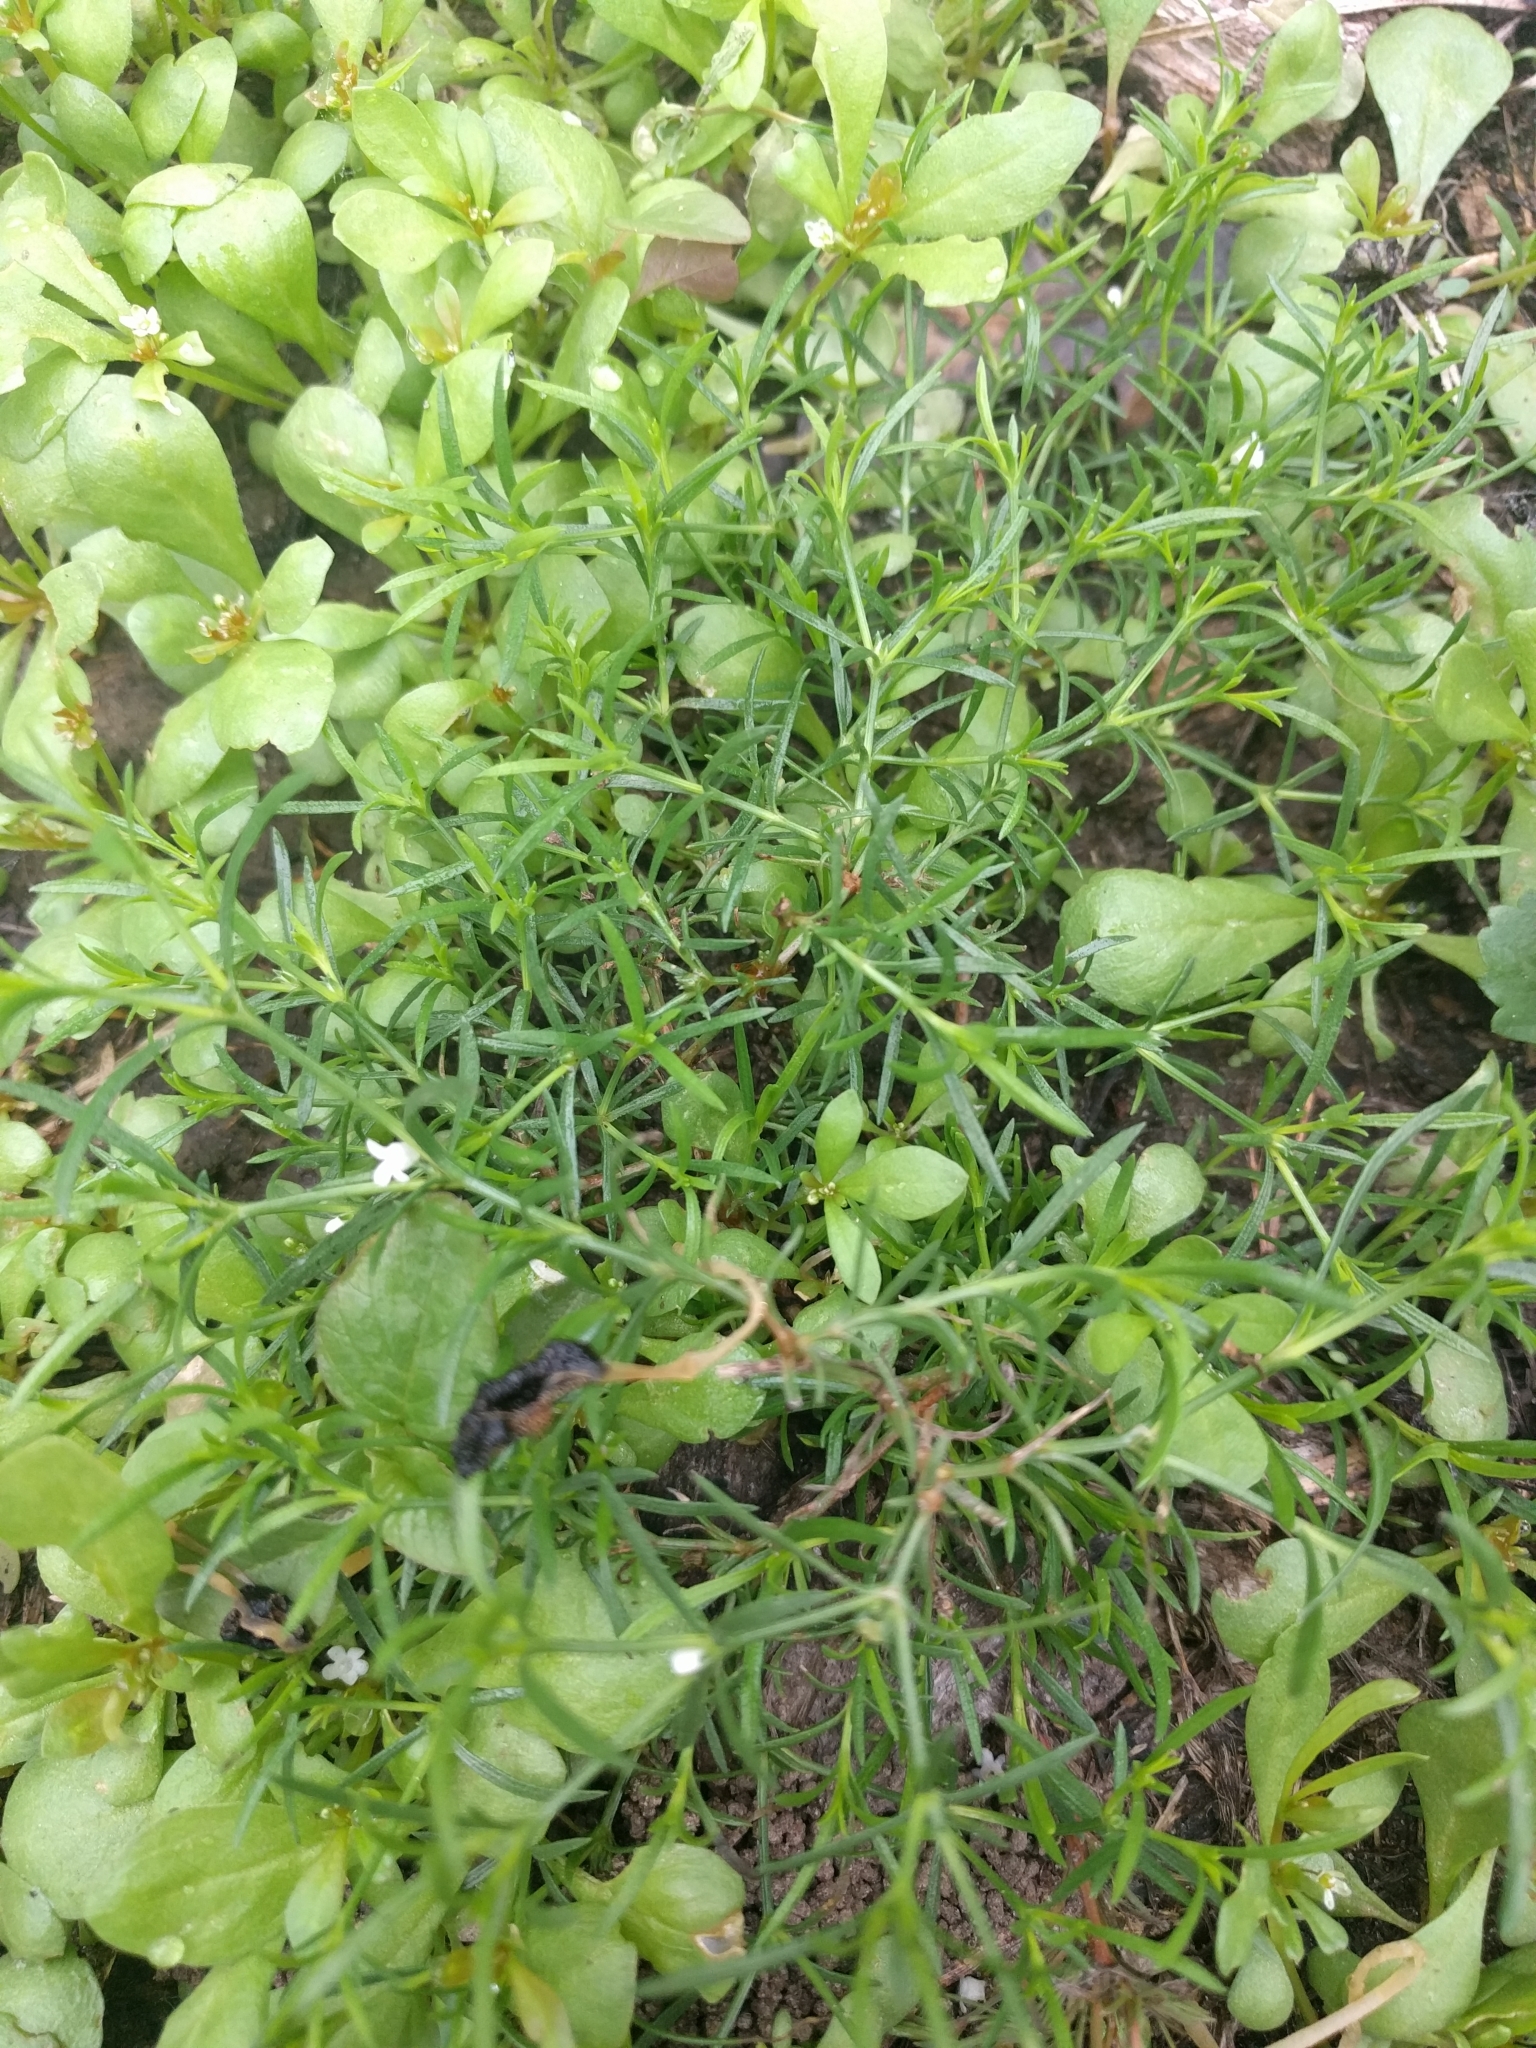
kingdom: Plantae
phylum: Tracheophyta
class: Magnoliopsida
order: Lamiales
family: Tetrachondraceae
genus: Polypremum
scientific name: Polypremum procumbens
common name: Juniper-leaf
